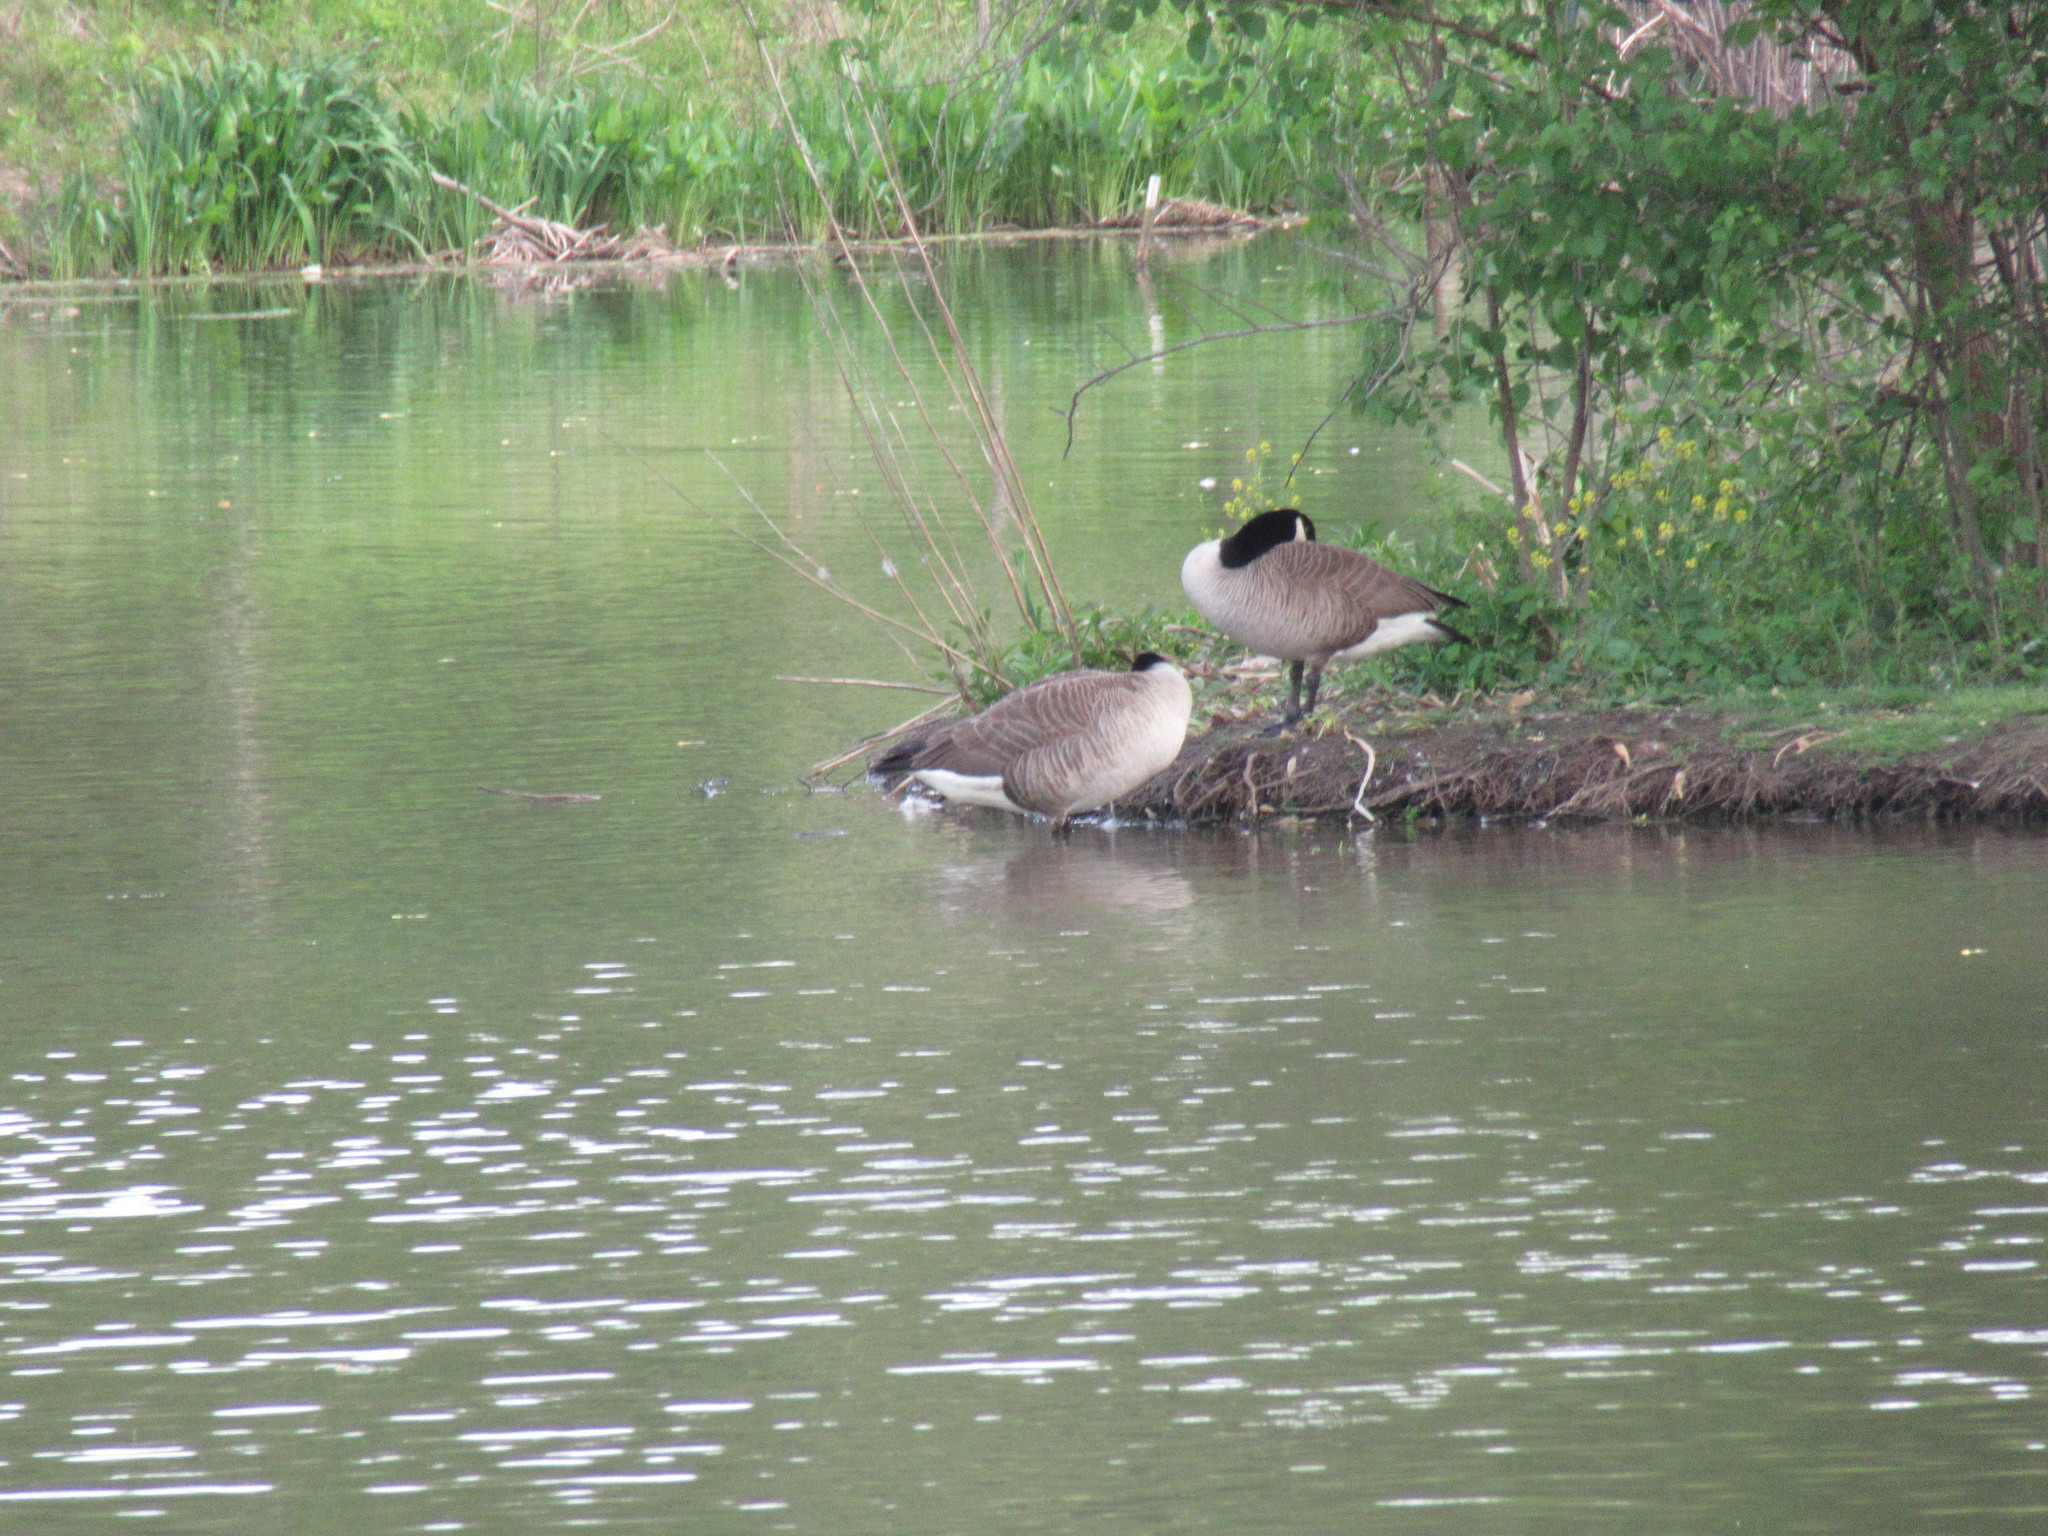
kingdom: Animalia
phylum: Chordata
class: Aves
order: Anseriformes
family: Anatidae
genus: Branta
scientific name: Branta canadensis
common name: Canada goose
